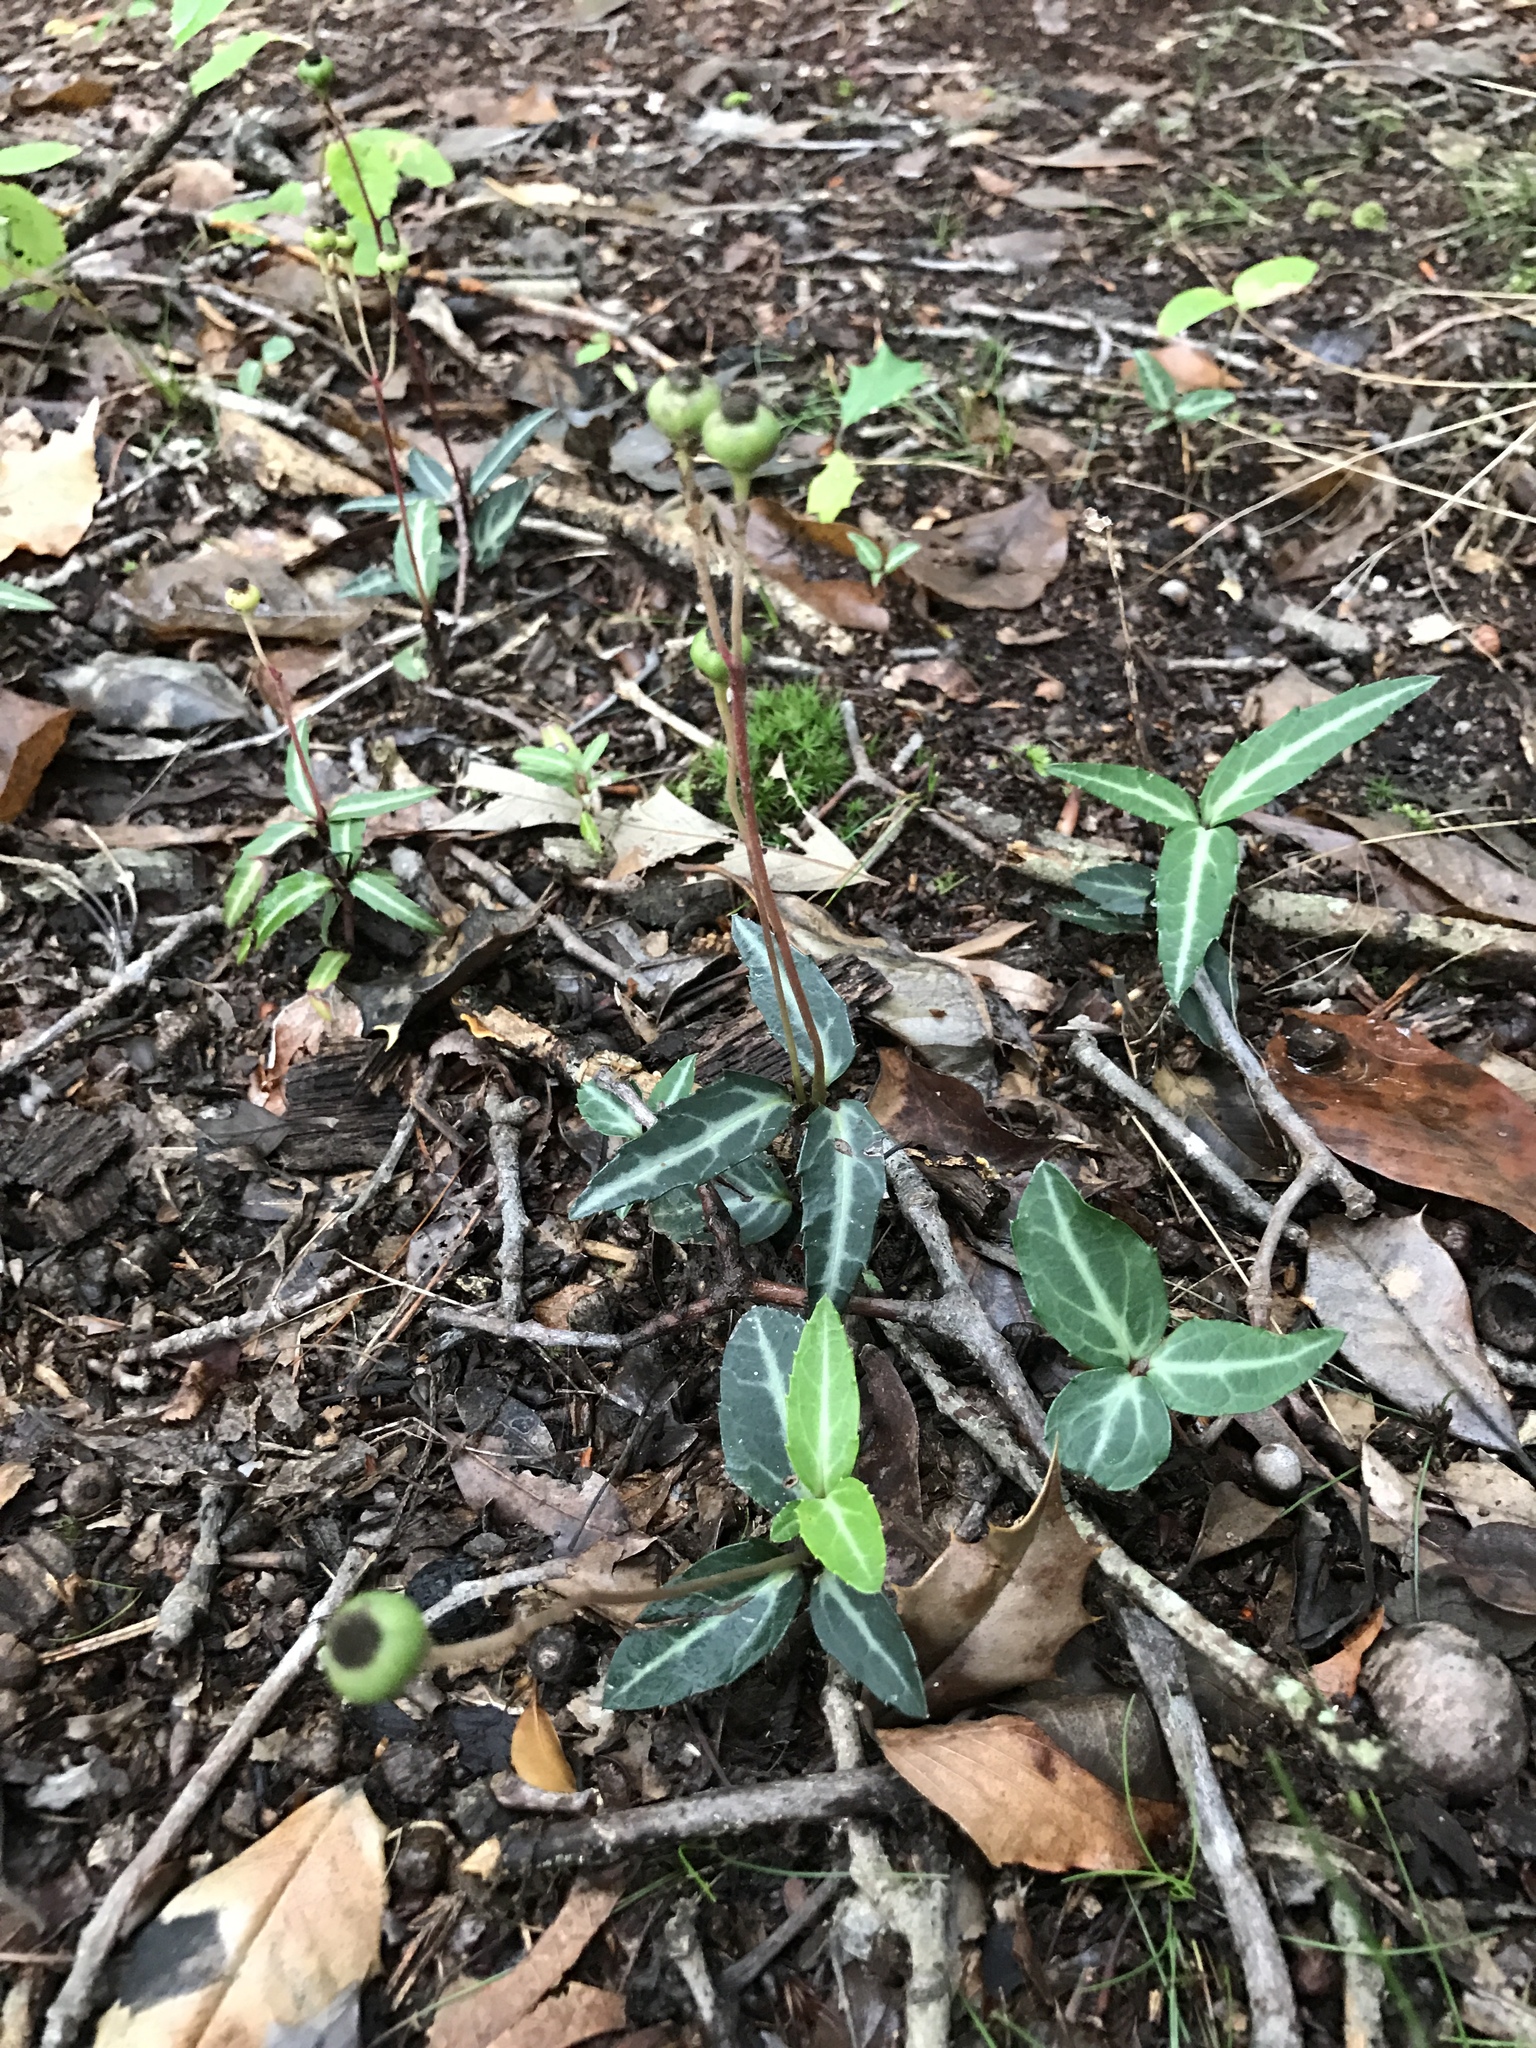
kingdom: Plantae
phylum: Tracheophyta
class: Magnoliopsida
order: Ericales
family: Ericaceae
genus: Chimaphila
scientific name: Chimaphila maculata
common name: Spotted pipsissewa
